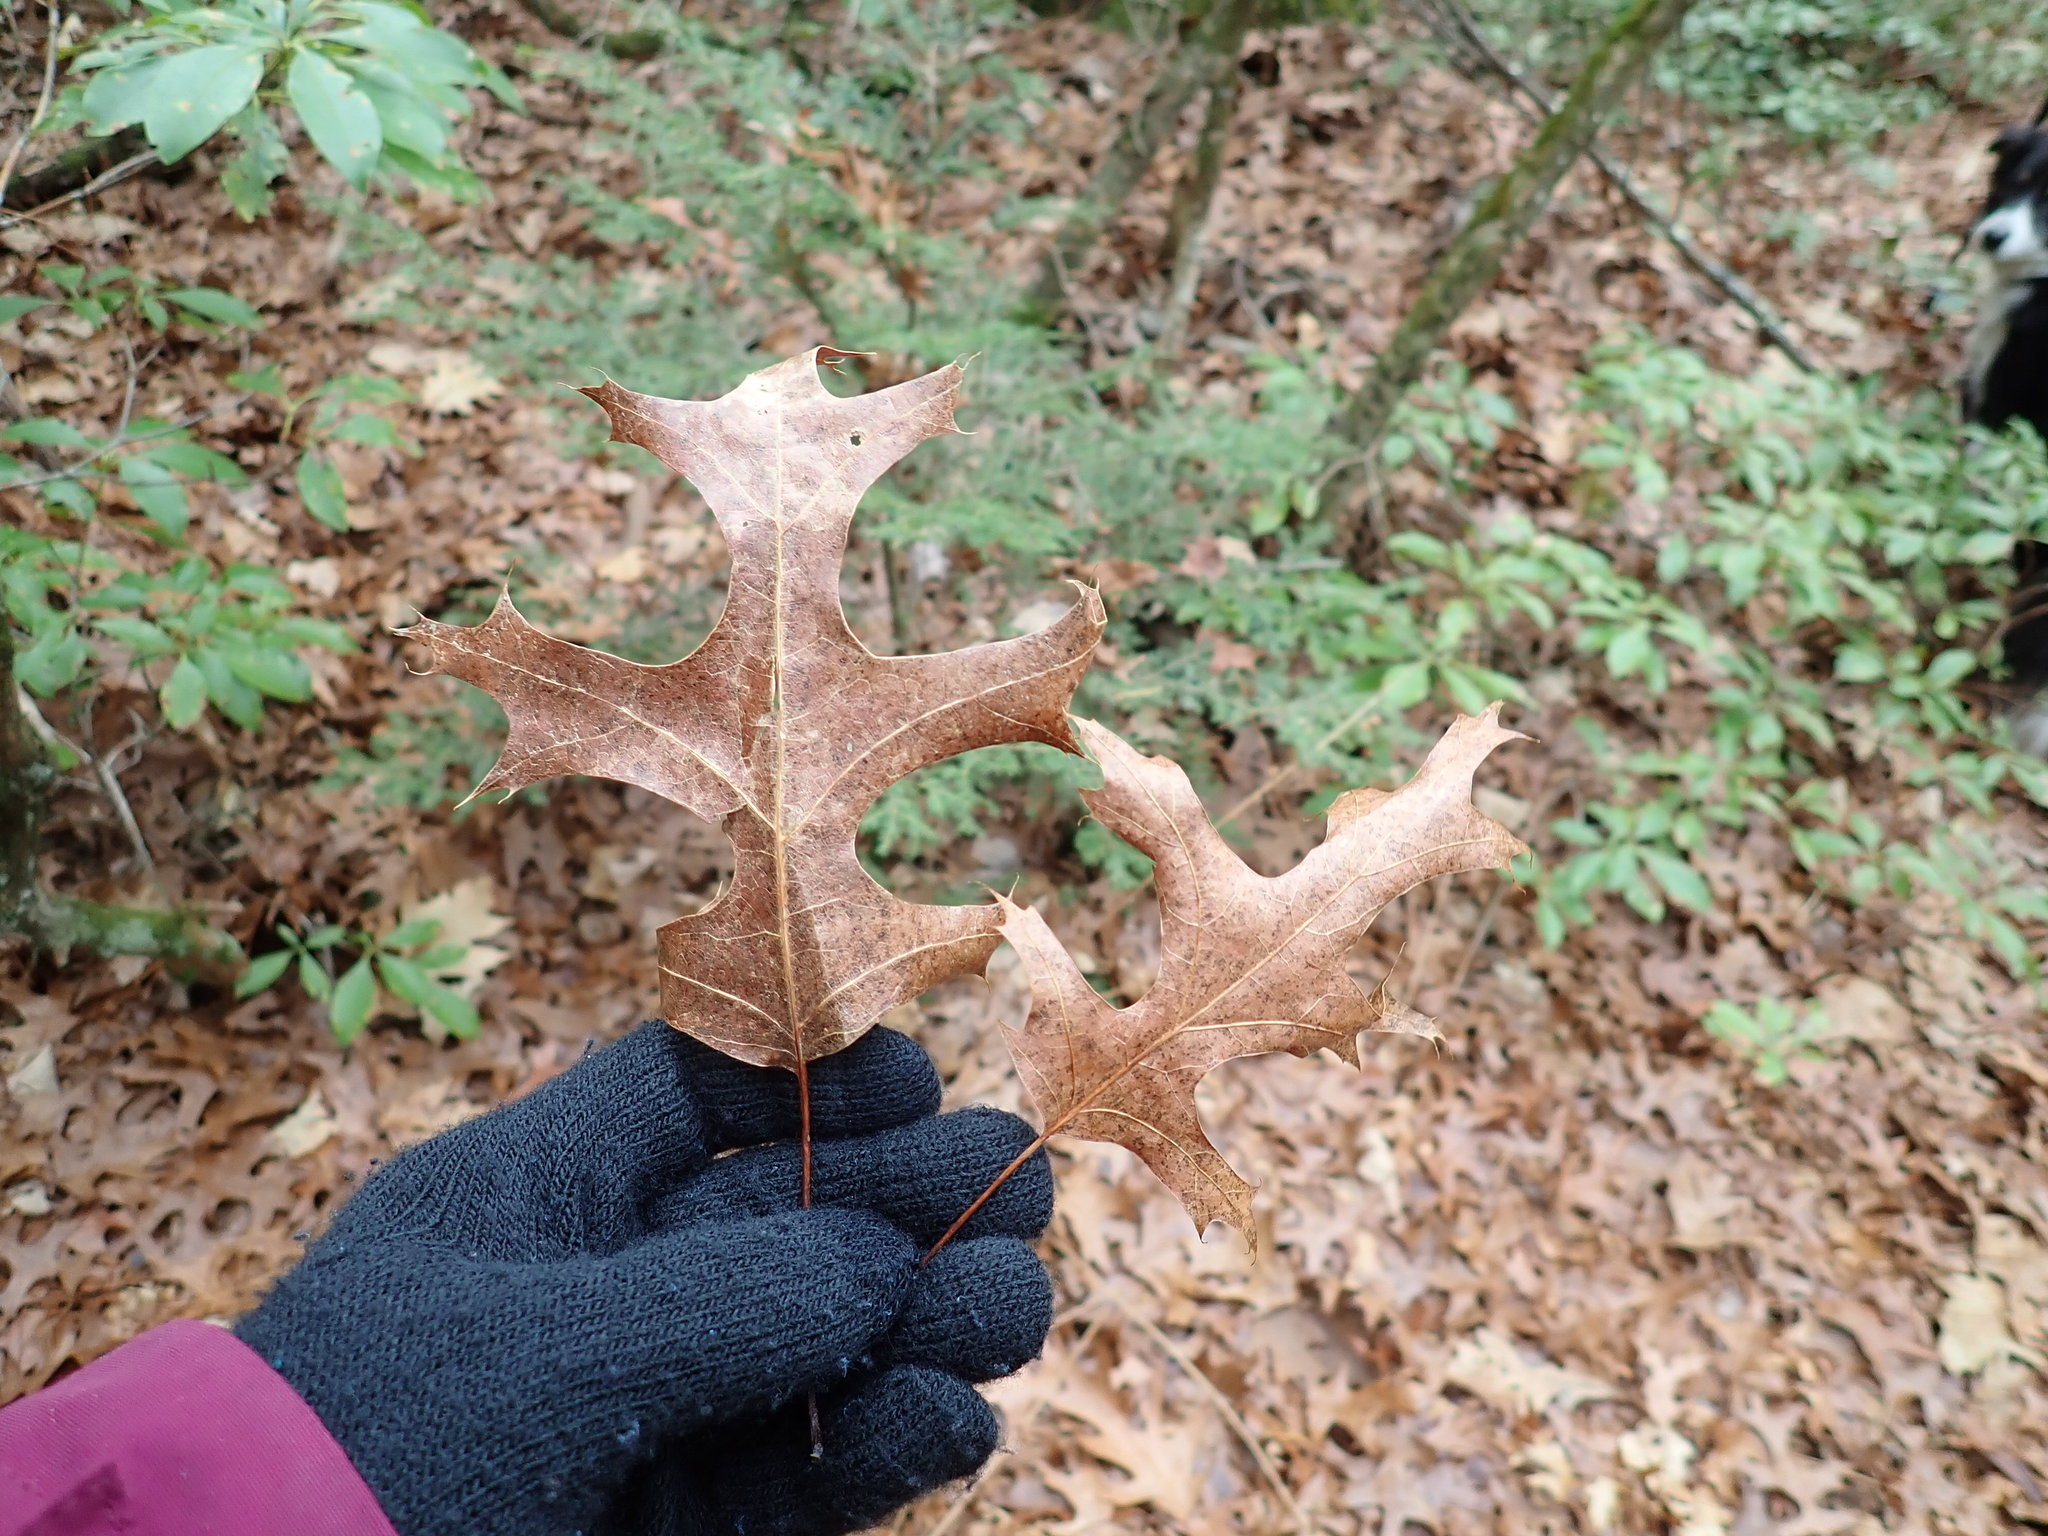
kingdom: Plantae
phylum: Tracheophyta
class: Magnoliopsida
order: Fagales
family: Fagaceae
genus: Quercus
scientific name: Quercus coccinea
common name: Scarlet oak
